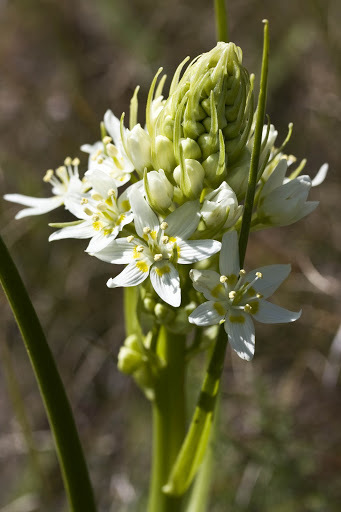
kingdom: Plantae
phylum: Tracheophyta
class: Liliopsida
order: Liliales
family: Melanthiaceae
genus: Toxicoscordion
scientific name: Toxicoscordion fremontii
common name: Fremont's death camas
